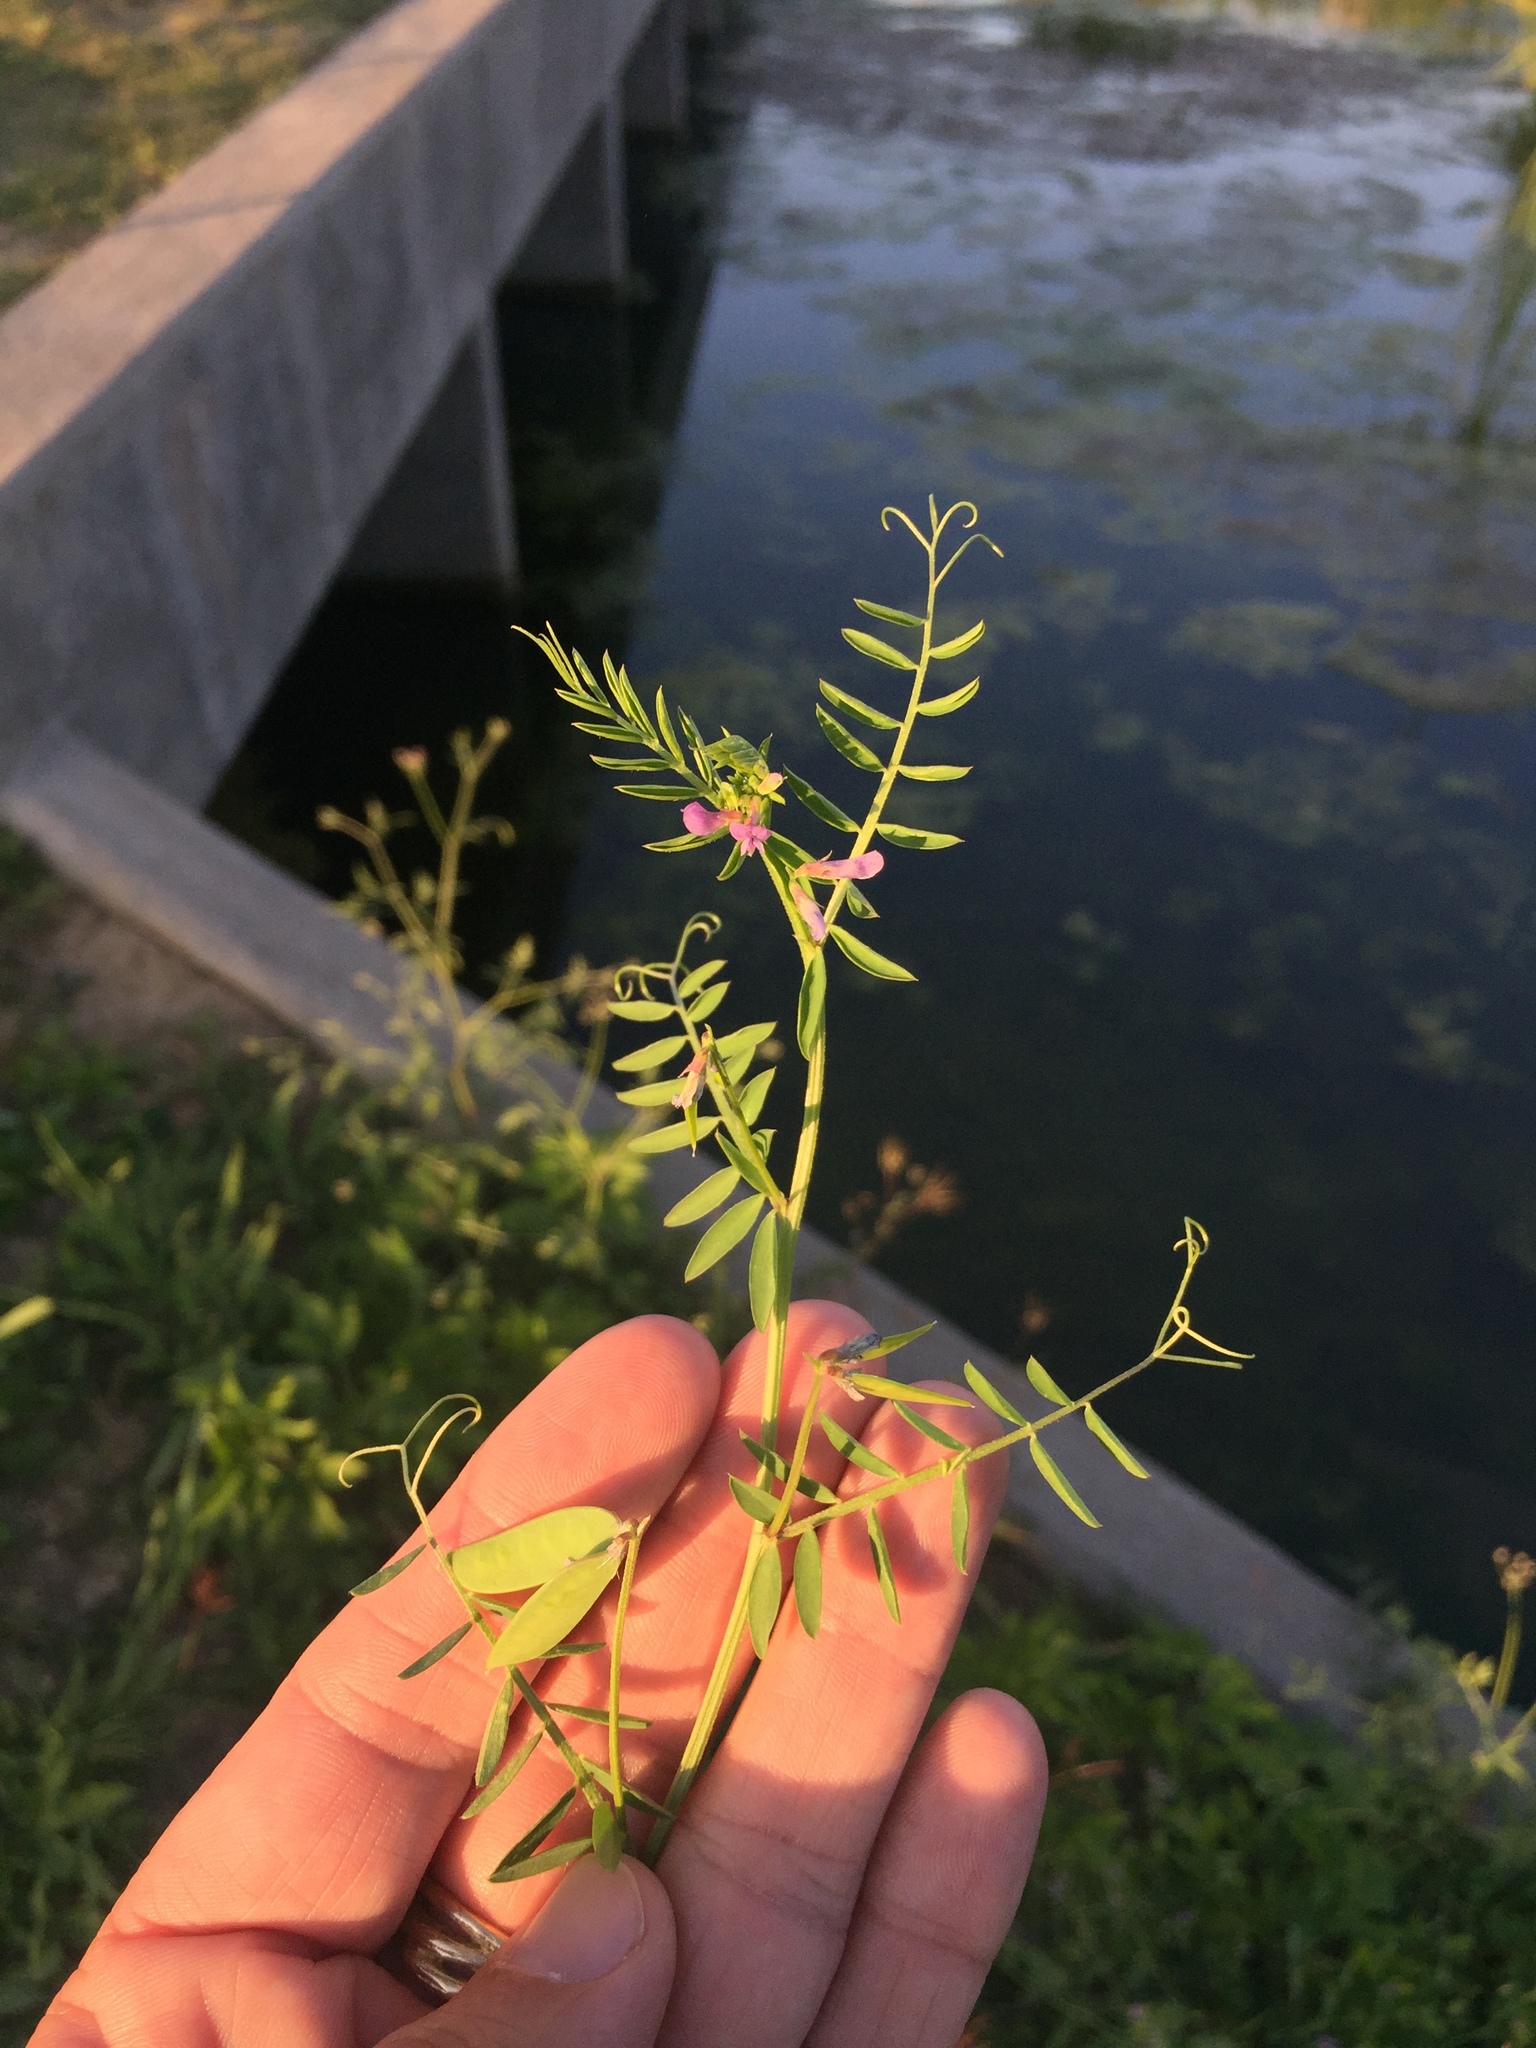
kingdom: Plantae
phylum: Tracheophyta
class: Magnoliopsida
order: Fabales
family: Fabaceae
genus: Vicia
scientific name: Vicia ludoviciana
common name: Louisiana vetch
